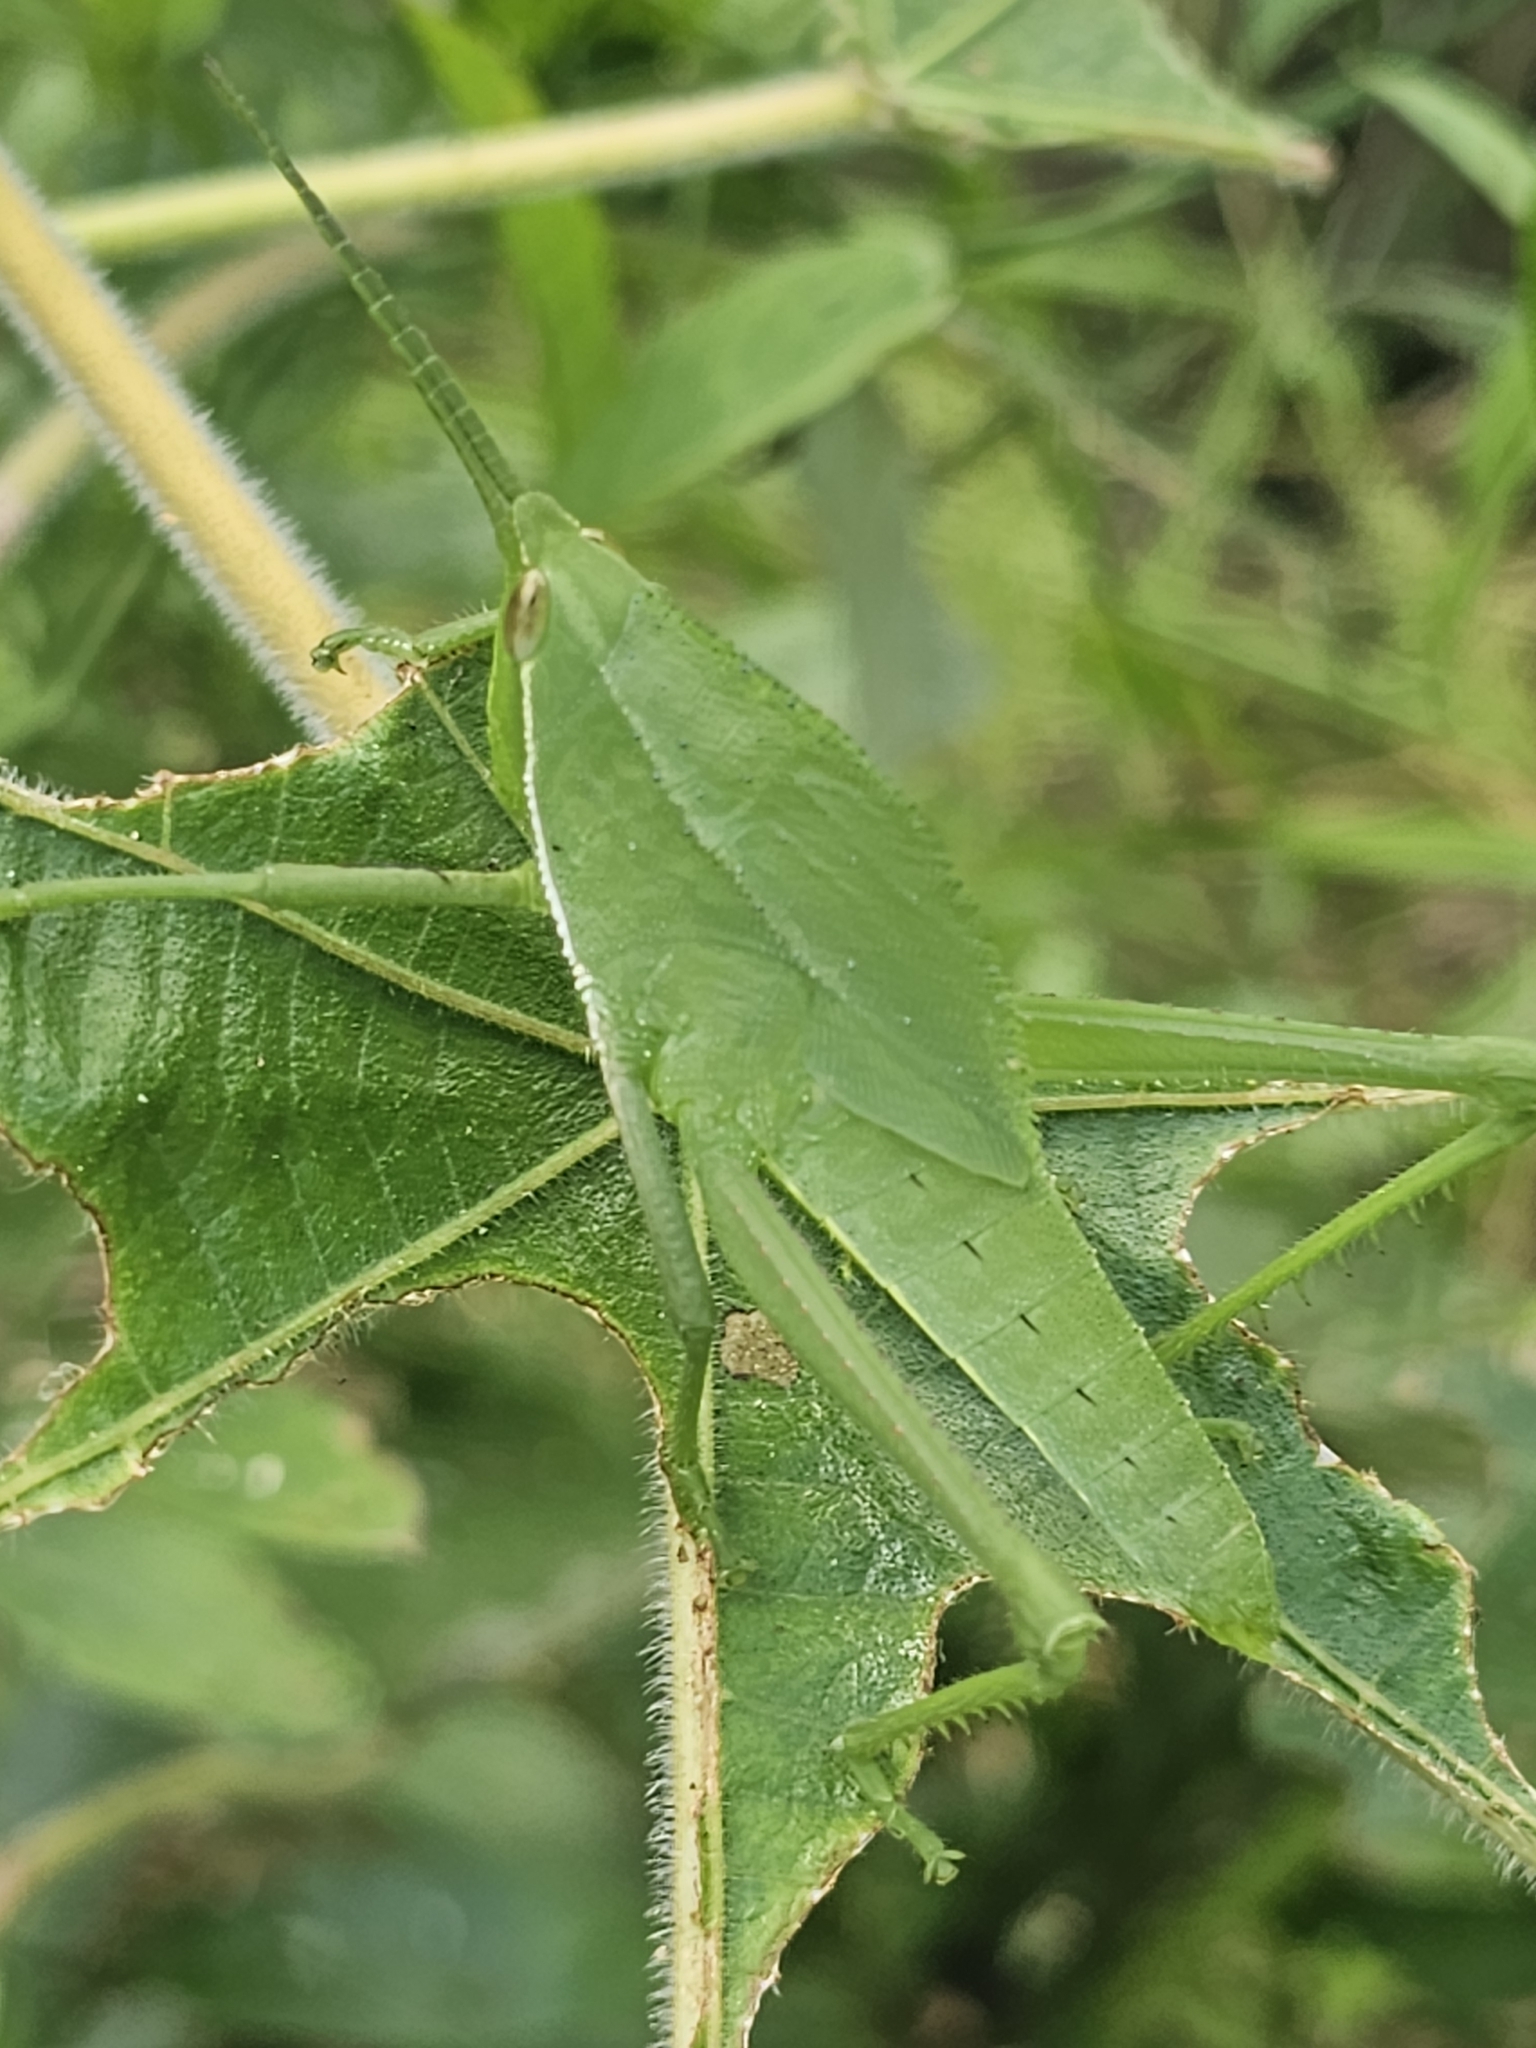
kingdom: Animalia
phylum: Arthropoda
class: Insecta
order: Orthoptera
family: Romaleidae
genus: Prionolopha
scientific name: Prionolopha serrata
